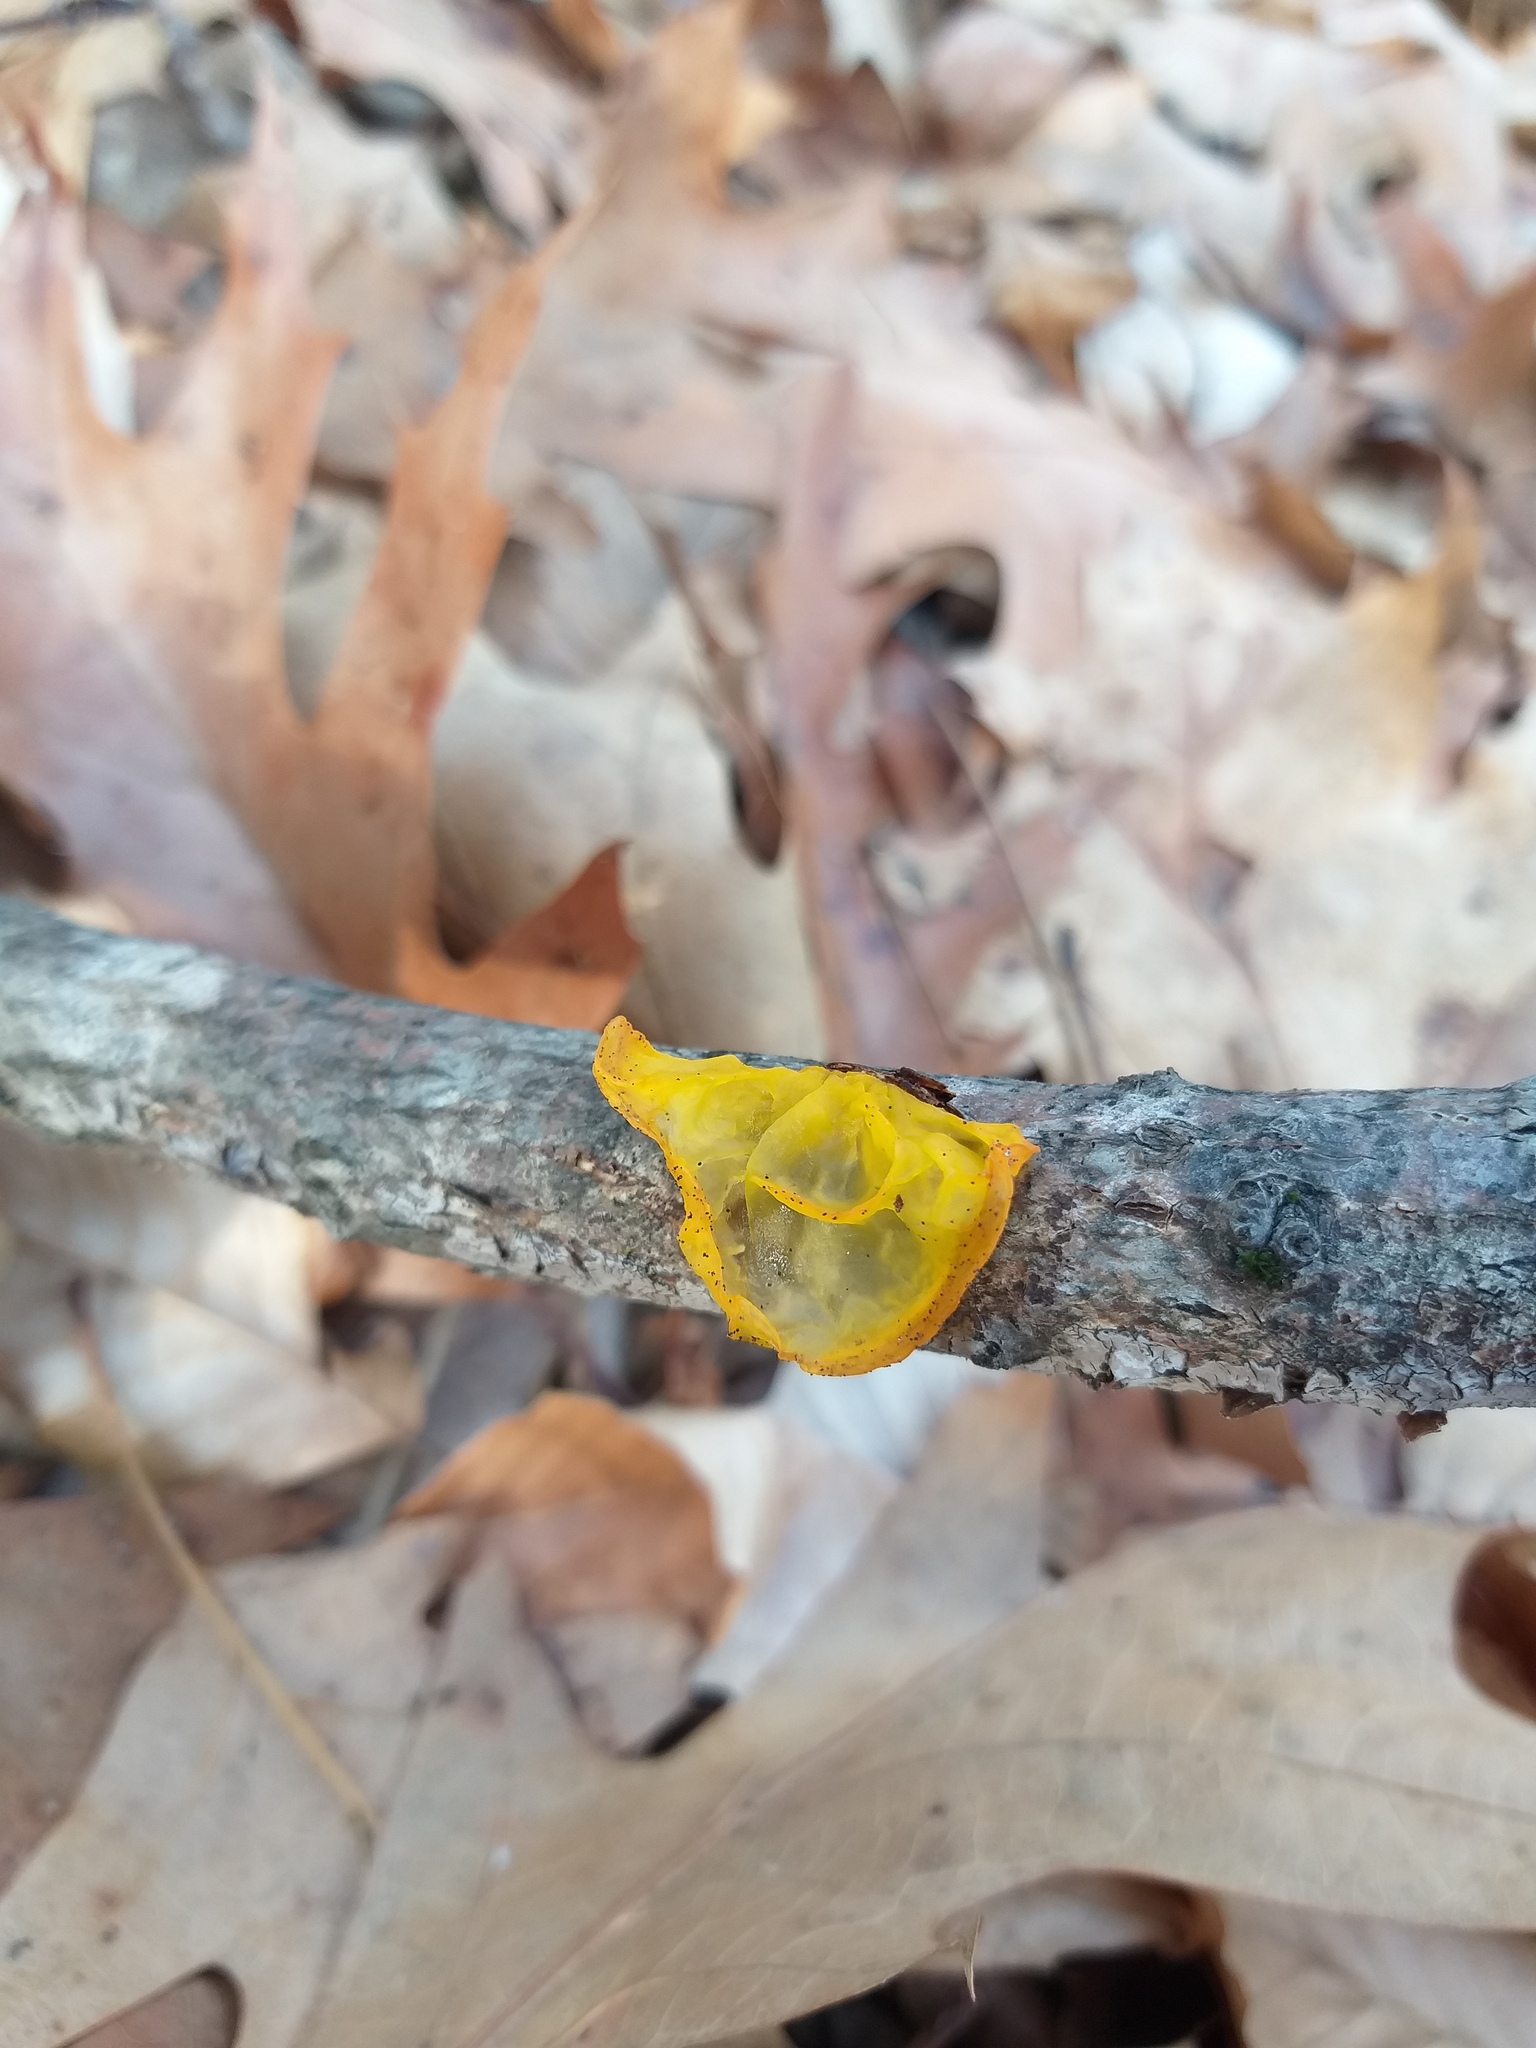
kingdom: Fungi
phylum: Basidiomycota
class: Tremellomycetes
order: Tremellales
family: Tremellaceae
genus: Tremella
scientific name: Tremella mesenterica
